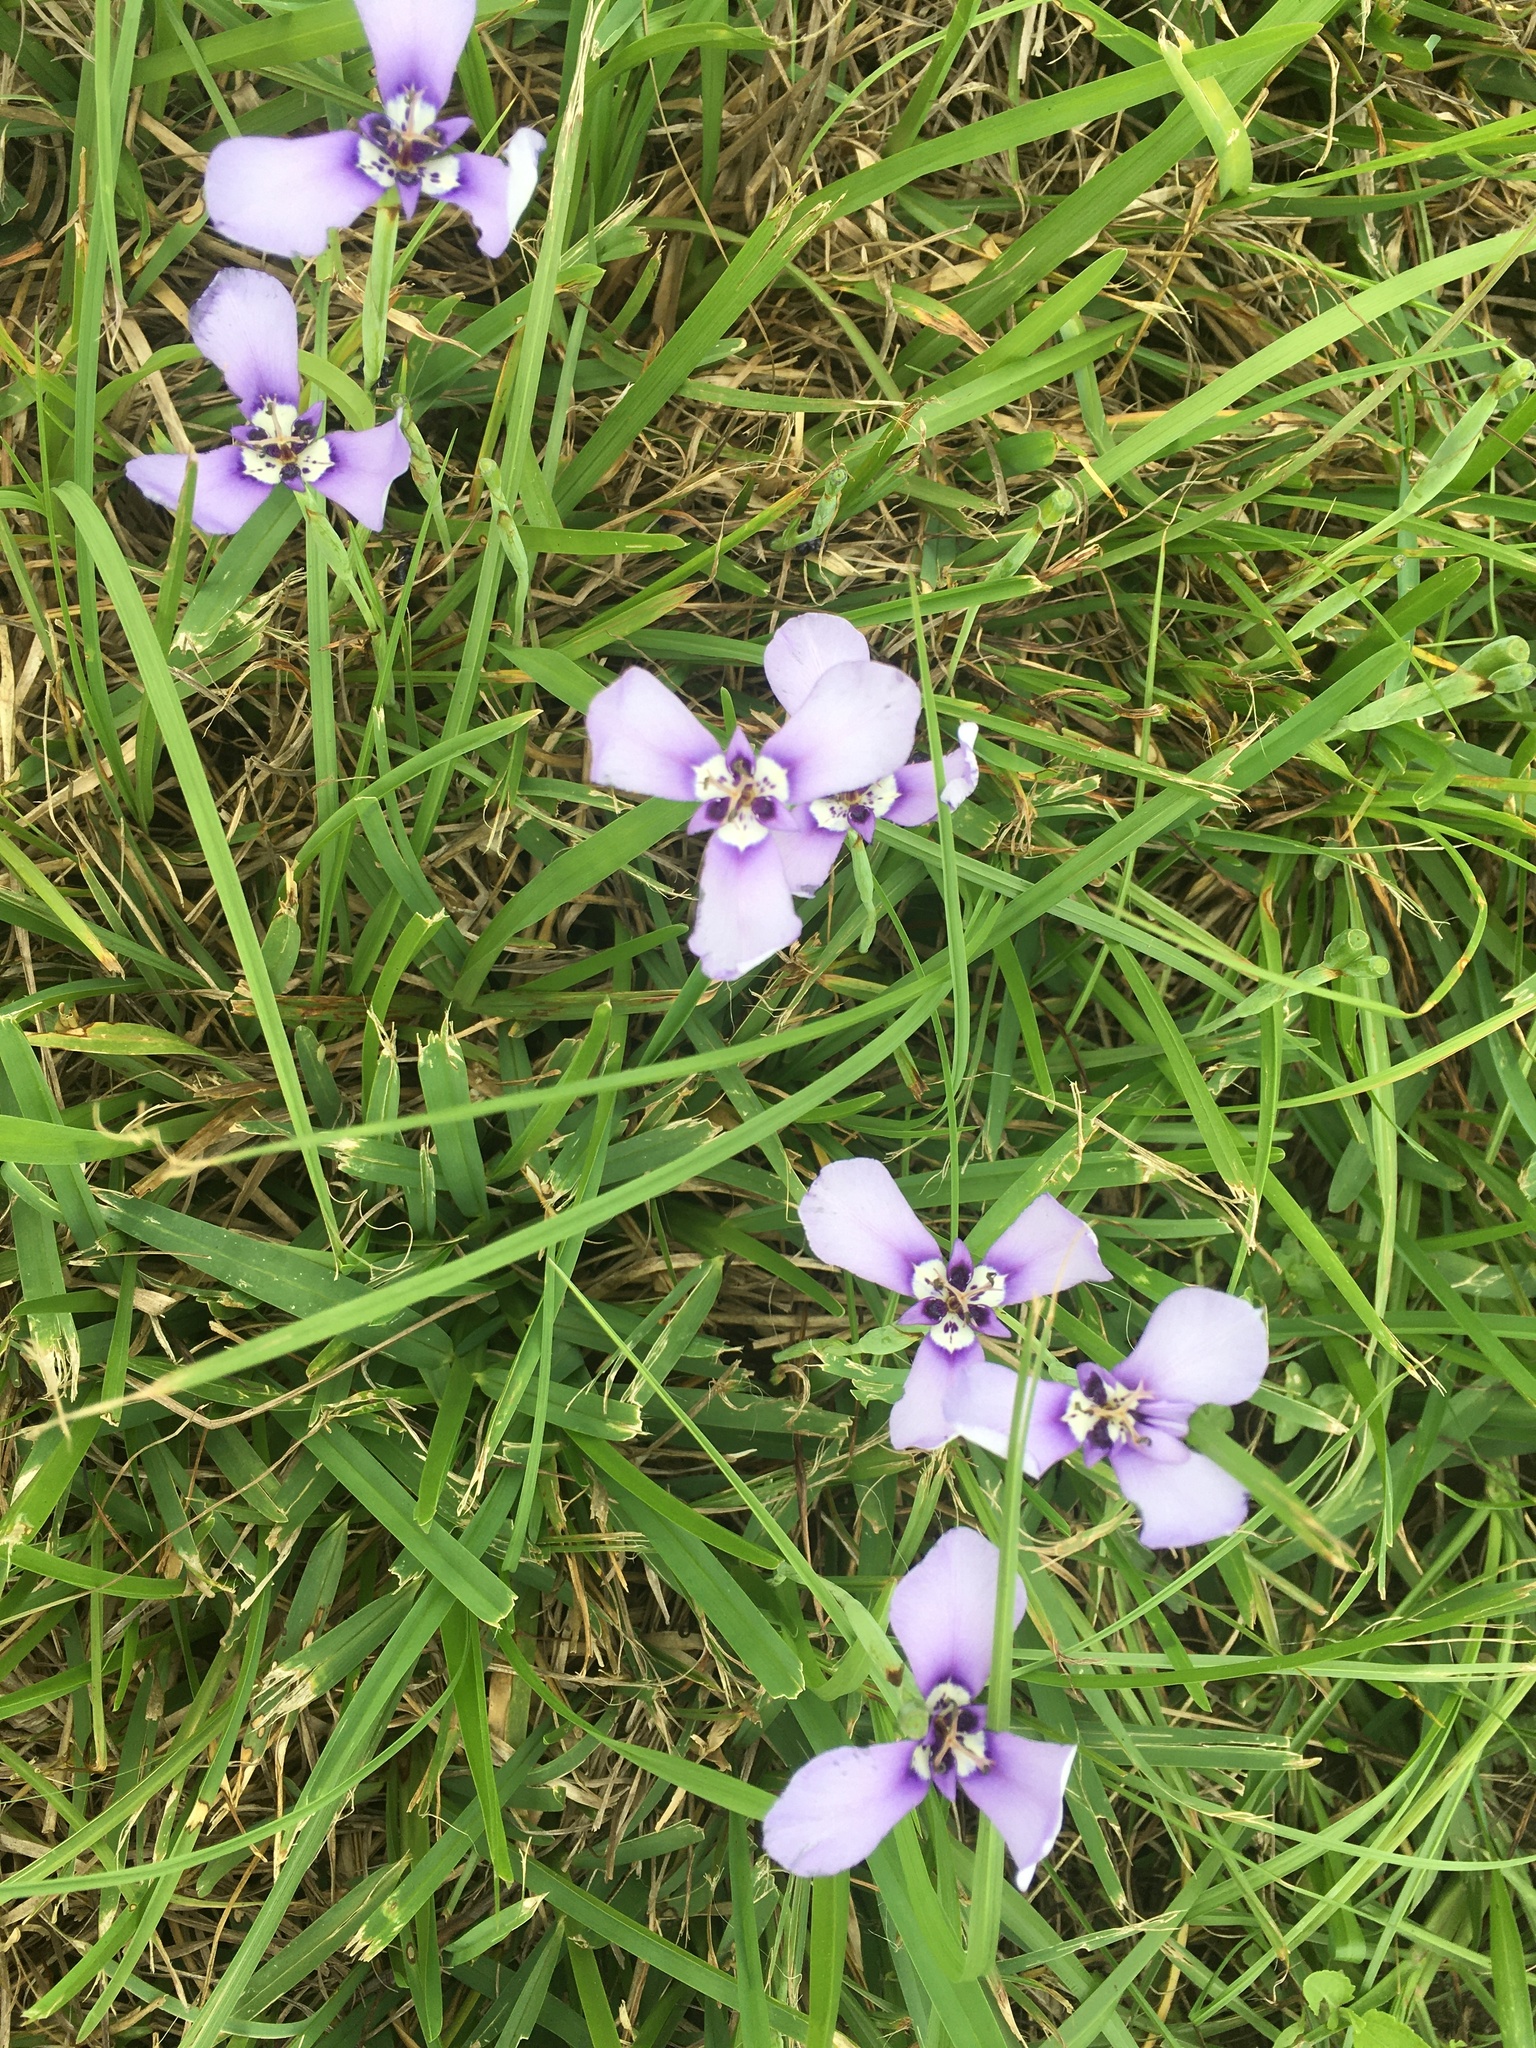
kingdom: Plantae
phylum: Tracheophyta
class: Liliopsida
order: Asparagales
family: Iridaceae
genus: Herbertia
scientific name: Herbertia lahue
